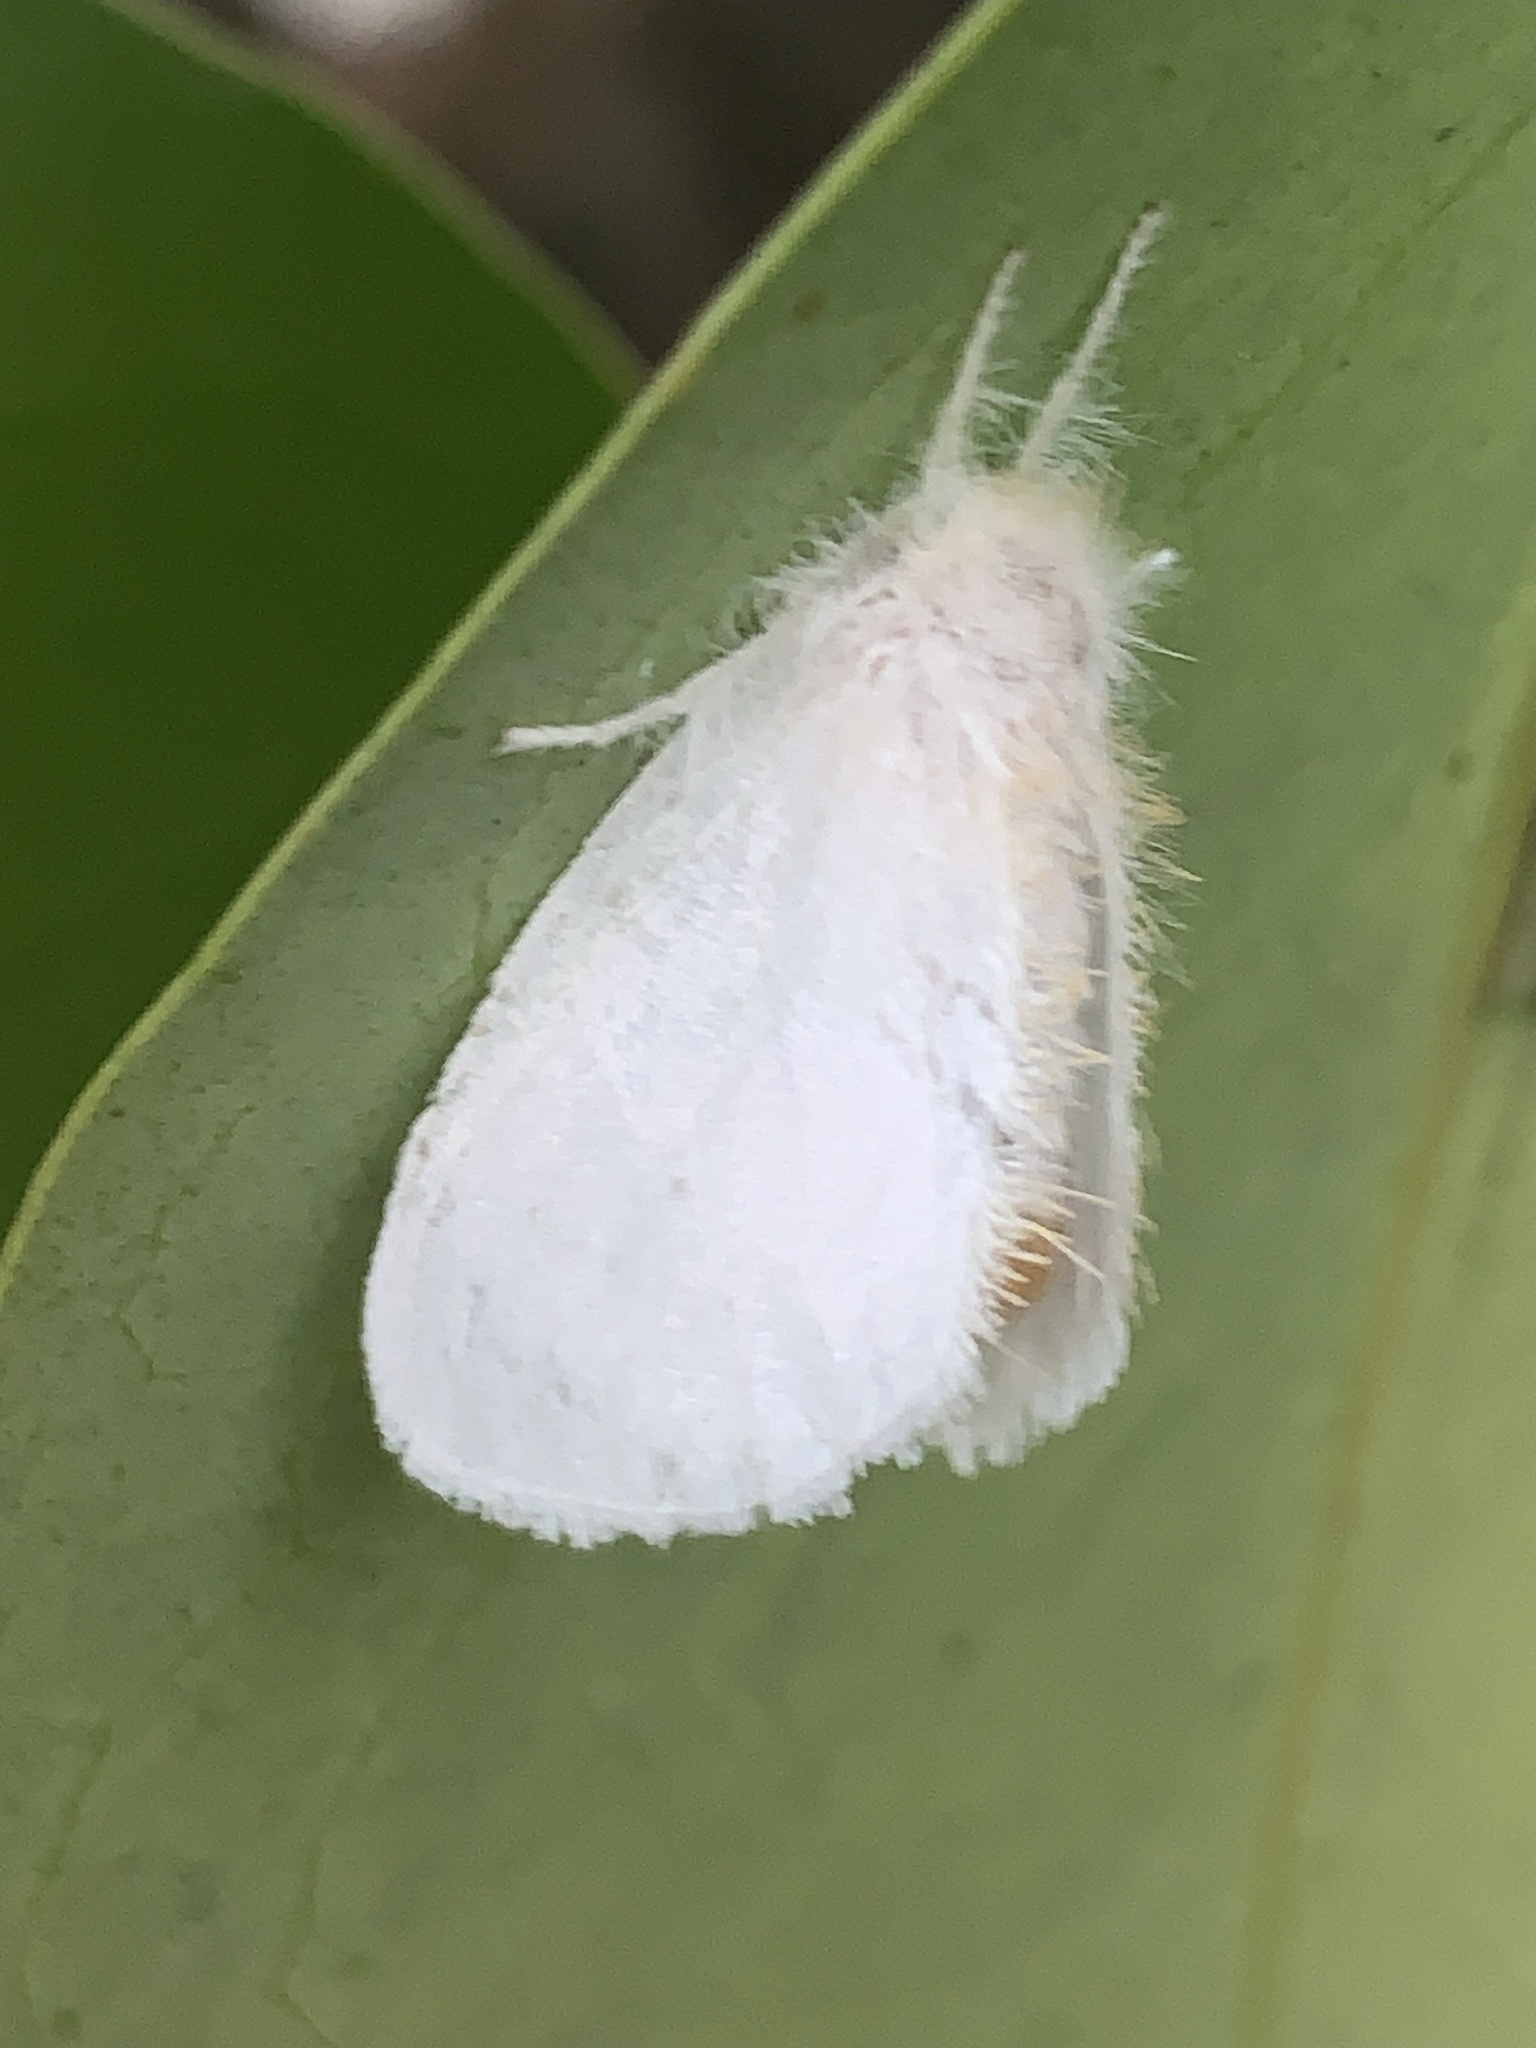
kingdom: Animalia
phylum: Arthropoda
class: Insecta
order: Lepidoptera
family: Erebidae
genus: Acyphas
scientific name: Acyphas chionitis
